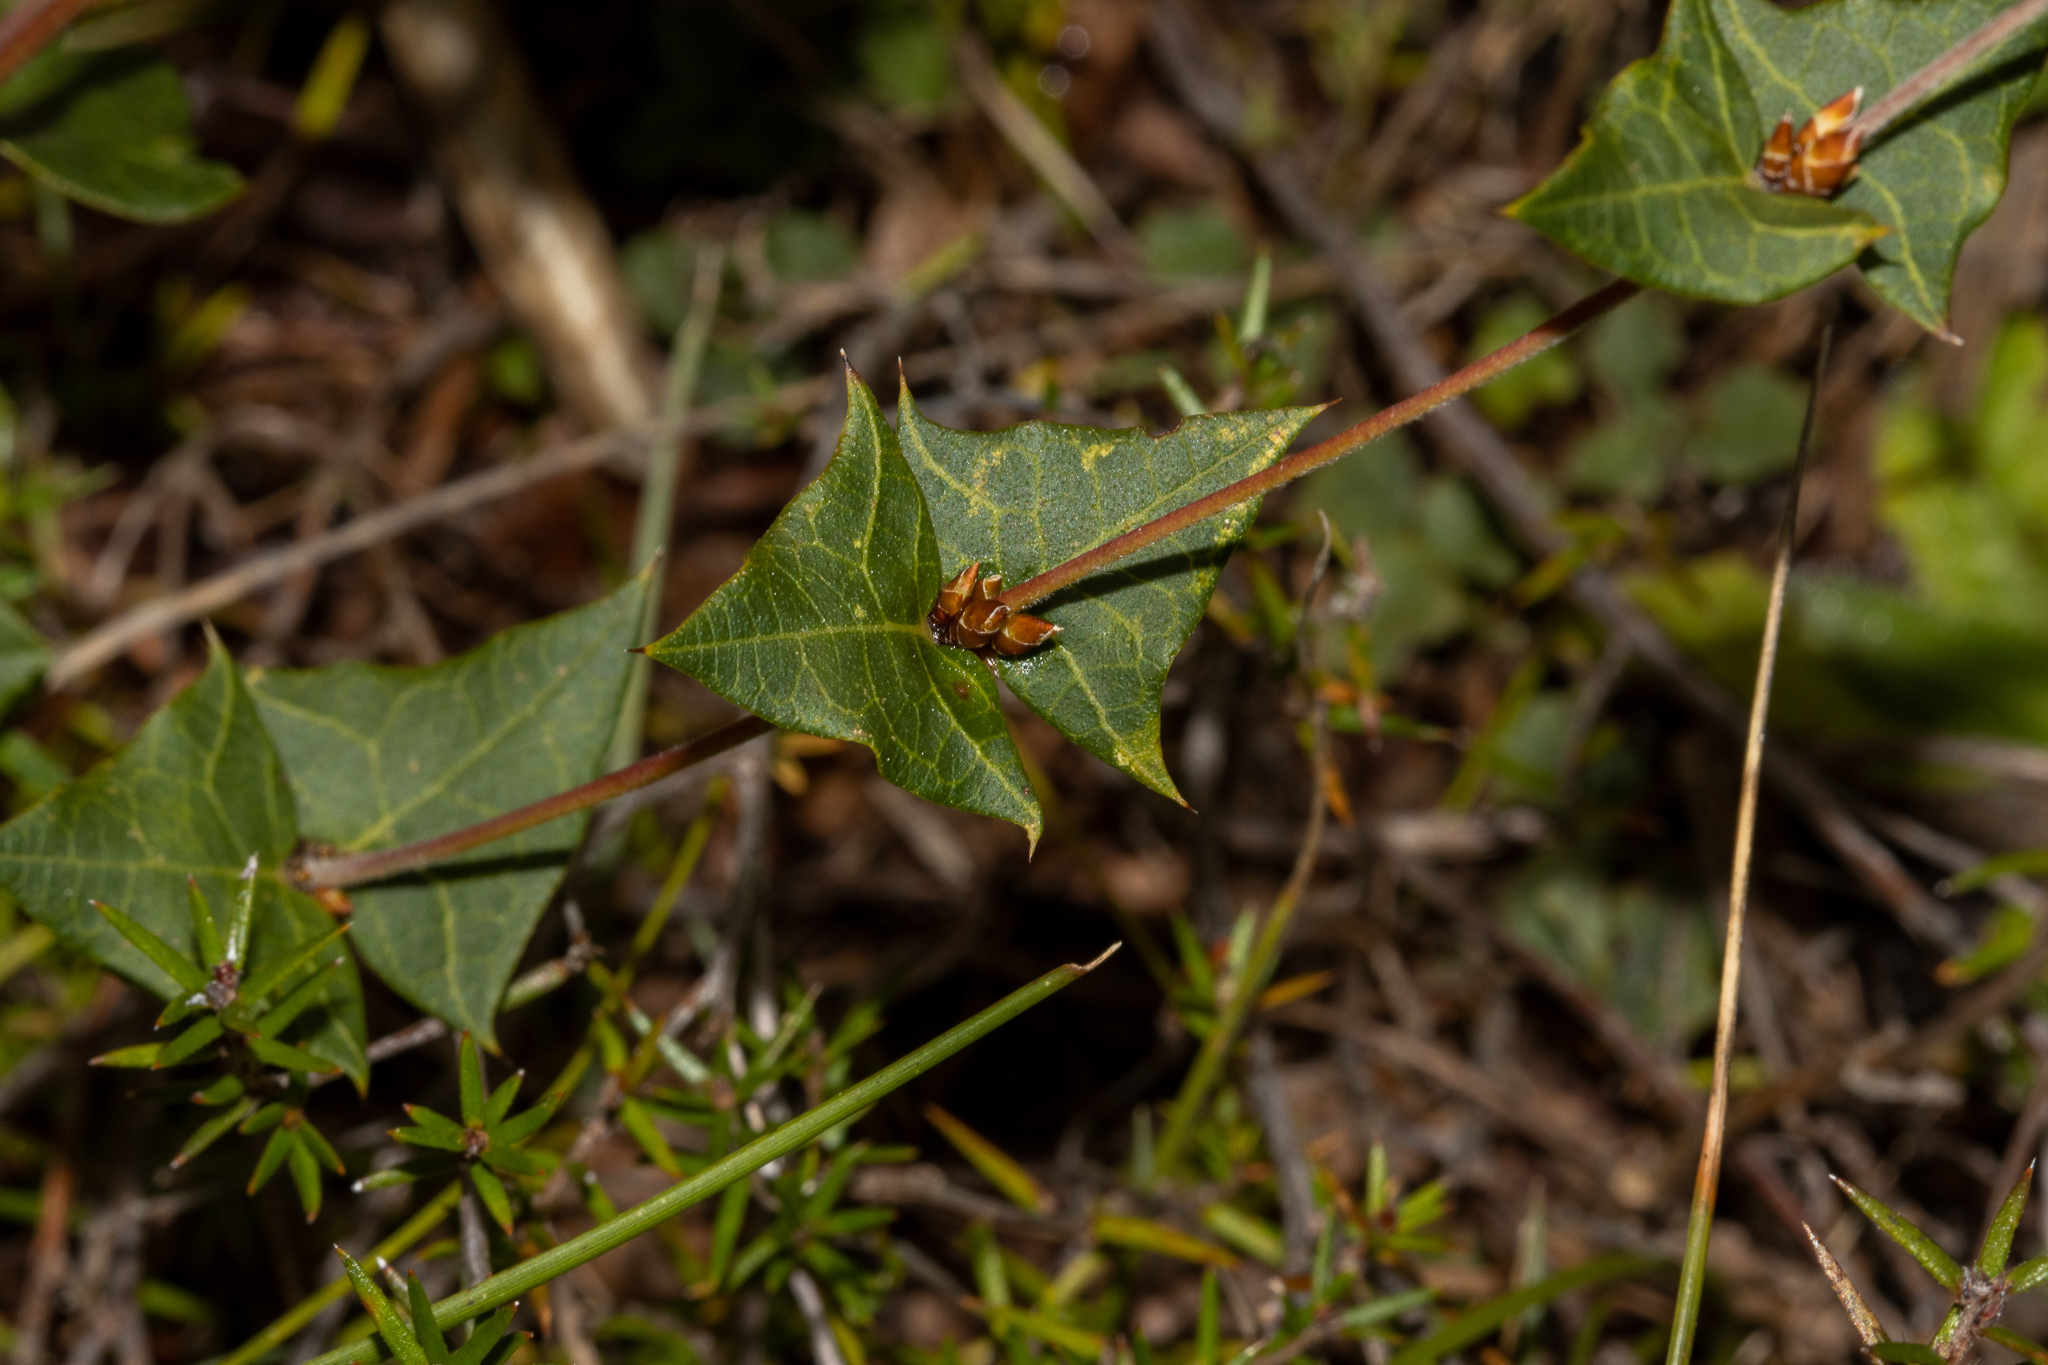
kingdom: Plantae
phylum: Tracheophyta
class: Magnoliopsida
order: Fabales
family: Fabaceae
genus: Platylobium
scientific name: Platylobium obtusangulum
